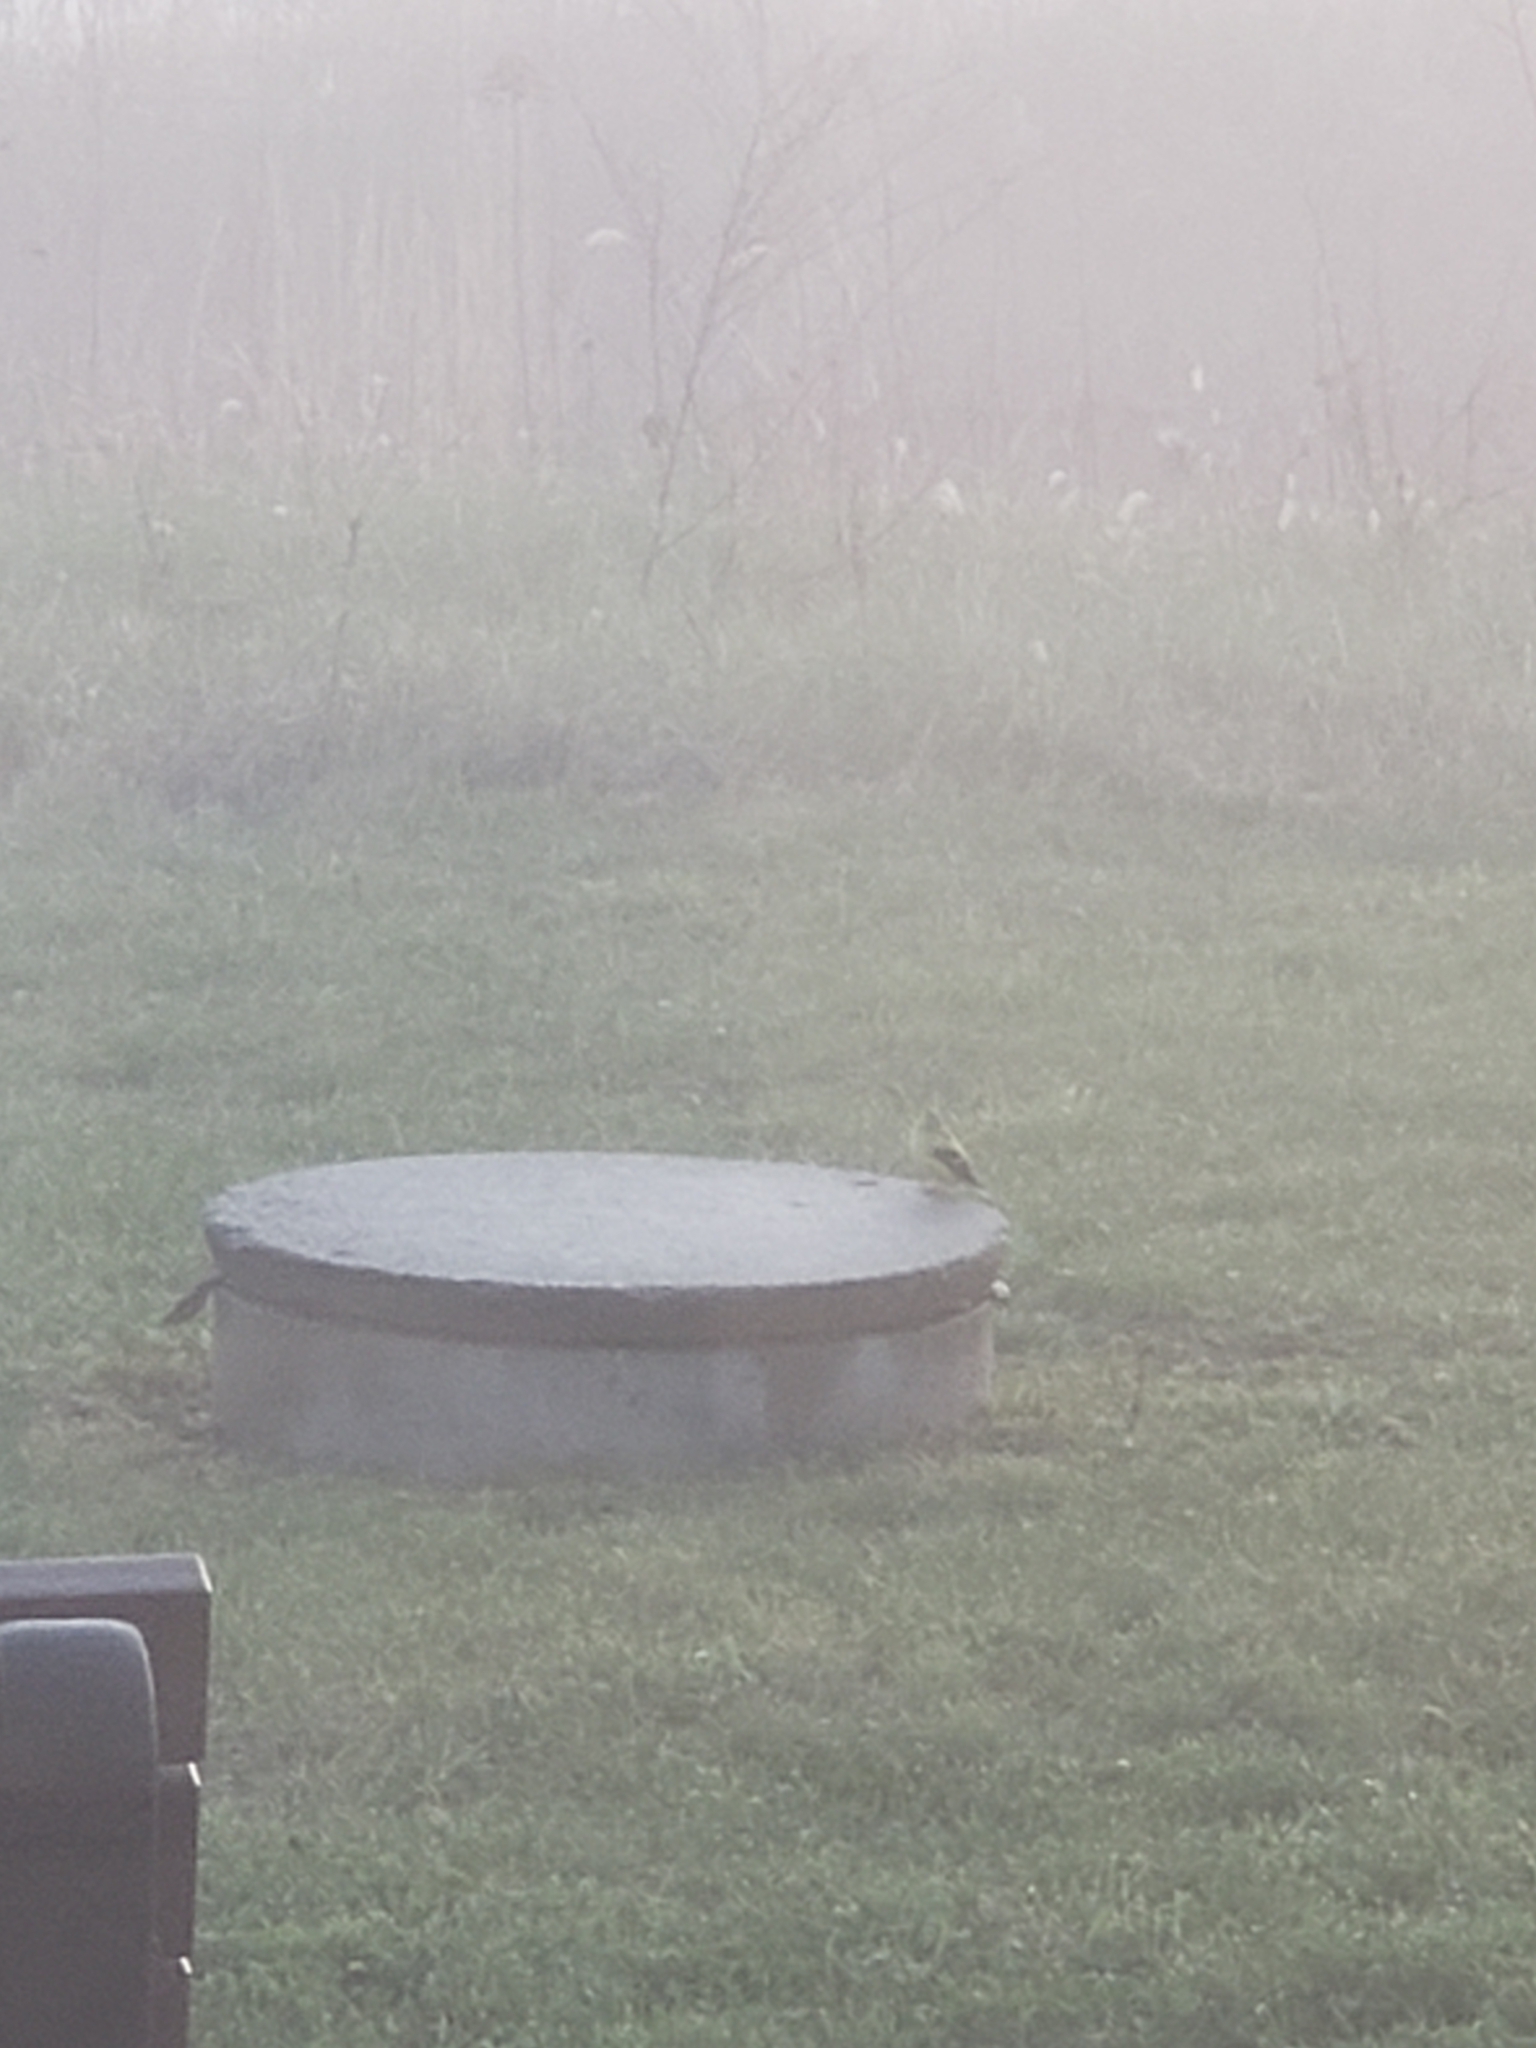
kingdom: Animalia
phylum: Chordata
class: Aves
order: Passeriformes
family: Fringillidae
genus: Spinus
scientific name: Spinus tristis
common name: American goldfinch
